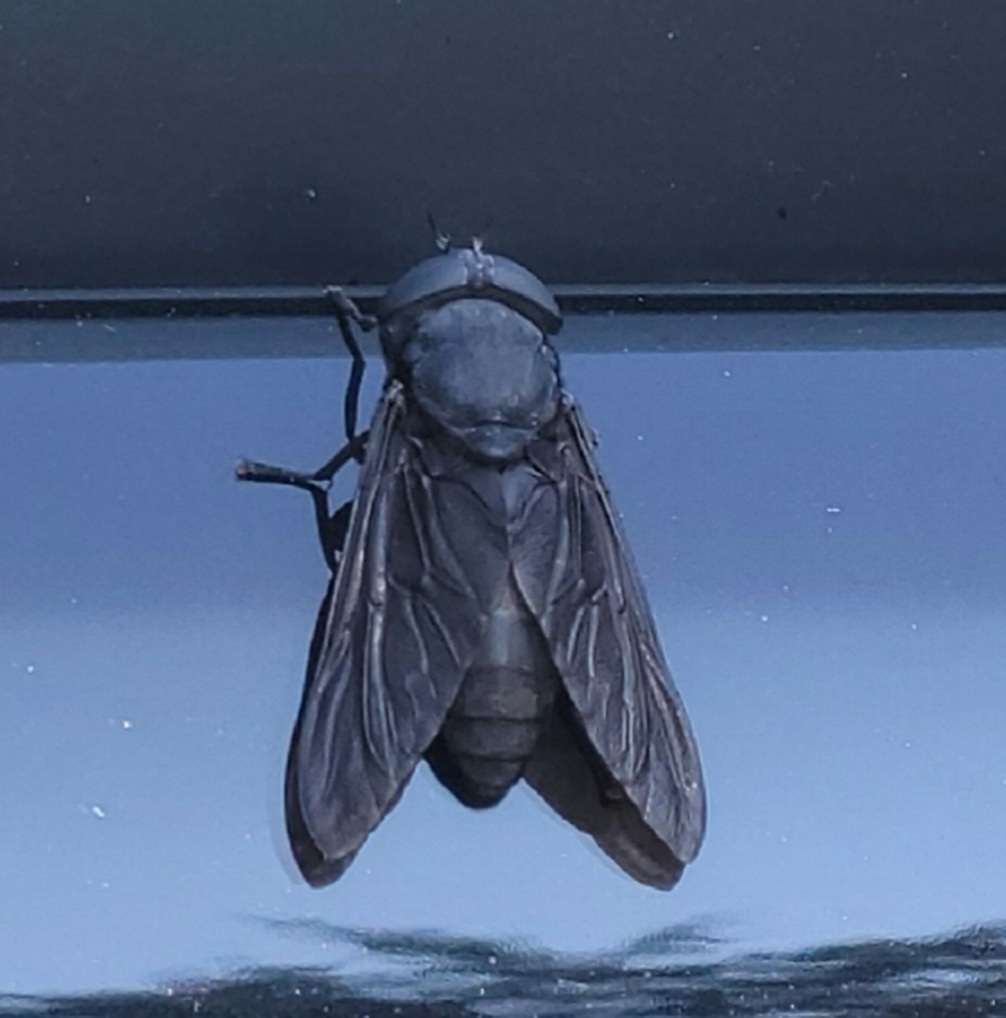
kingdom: Animalia
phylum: Arthropoda
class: Insecta
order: Diptera
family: Tabanidae
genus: Tabanus
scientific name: Tabanus atratus
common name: Black horse fly
